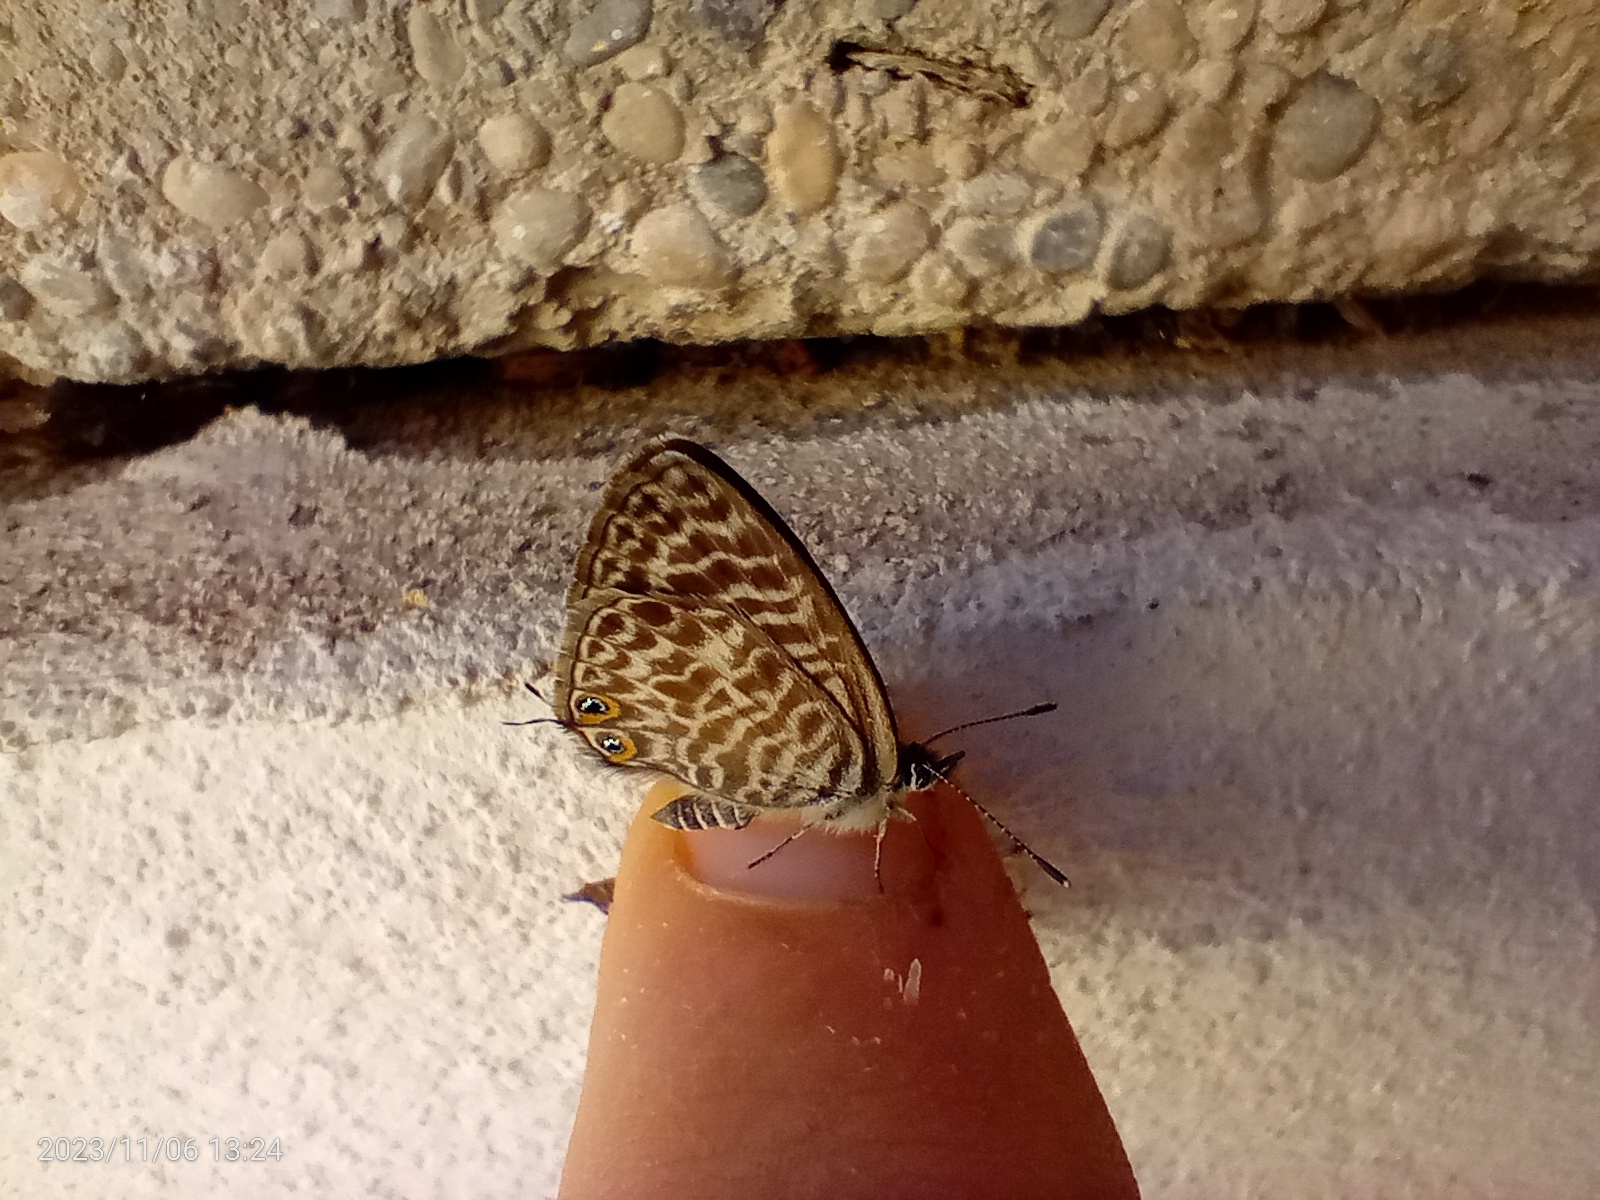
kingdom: Animalia
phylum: Arthropoda
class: Insecta
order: Lepidoptera
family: Lycaenidae
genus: Leptotes
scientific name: Leptotes pirithous
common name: Lang's short-tailed blue
